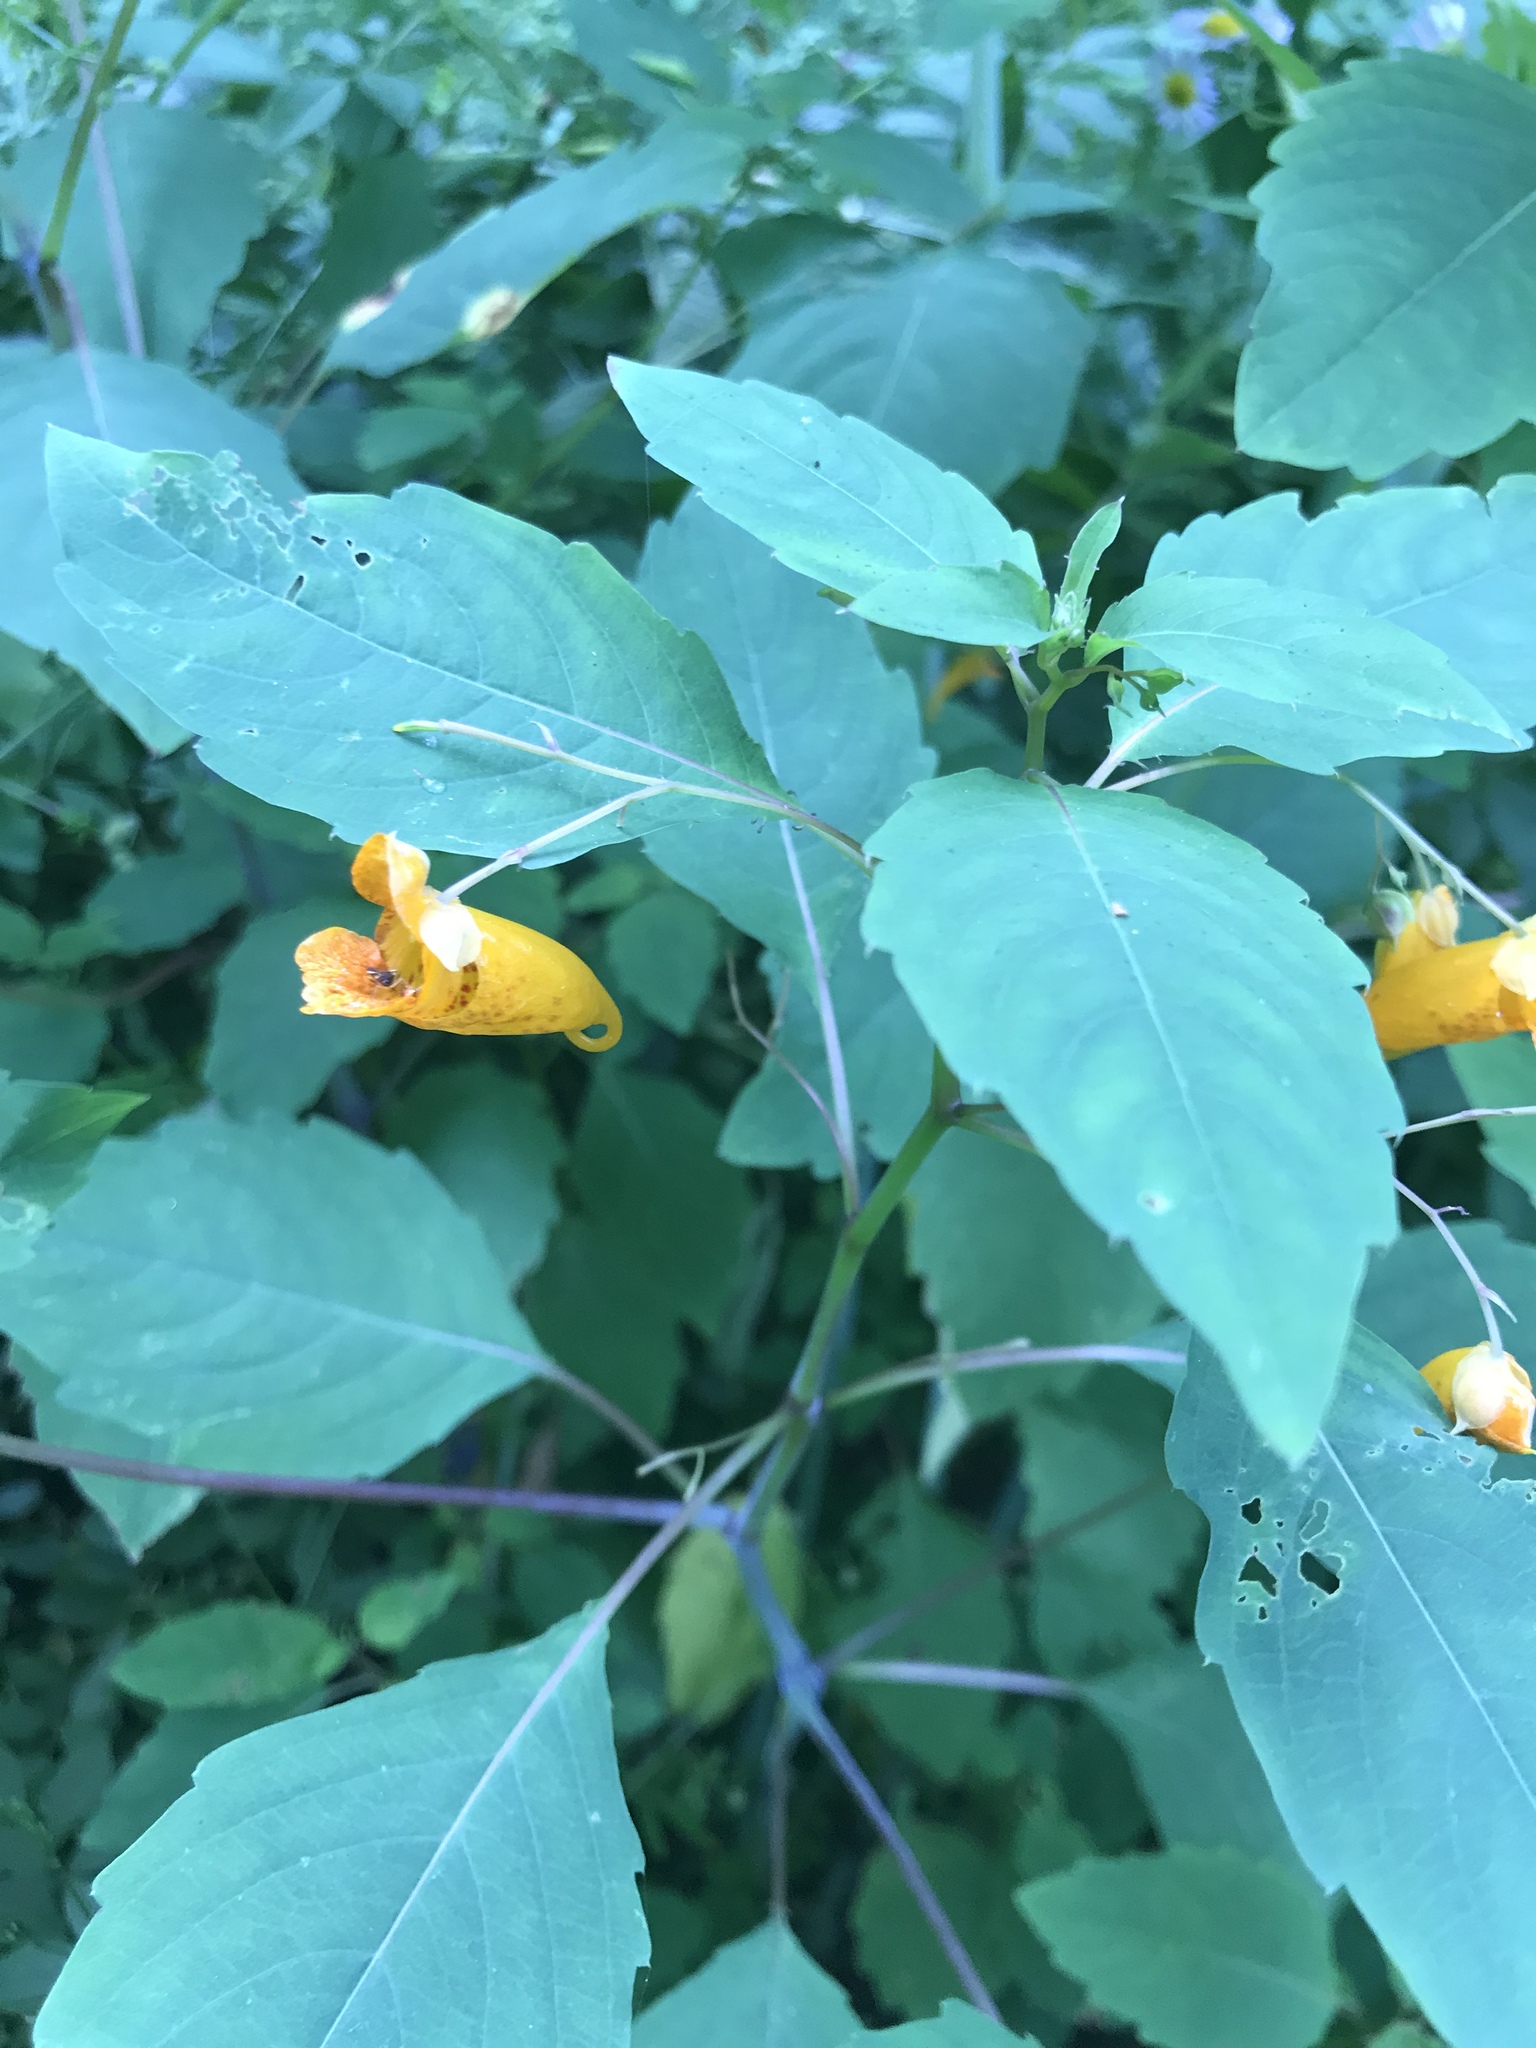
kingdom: Plantae
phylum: Tracheophyta
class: Magnoliopsida
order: Ericales
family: Balsaminaceae
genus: Impatiens
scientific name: Impatiens capensis
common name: Orange balsam
